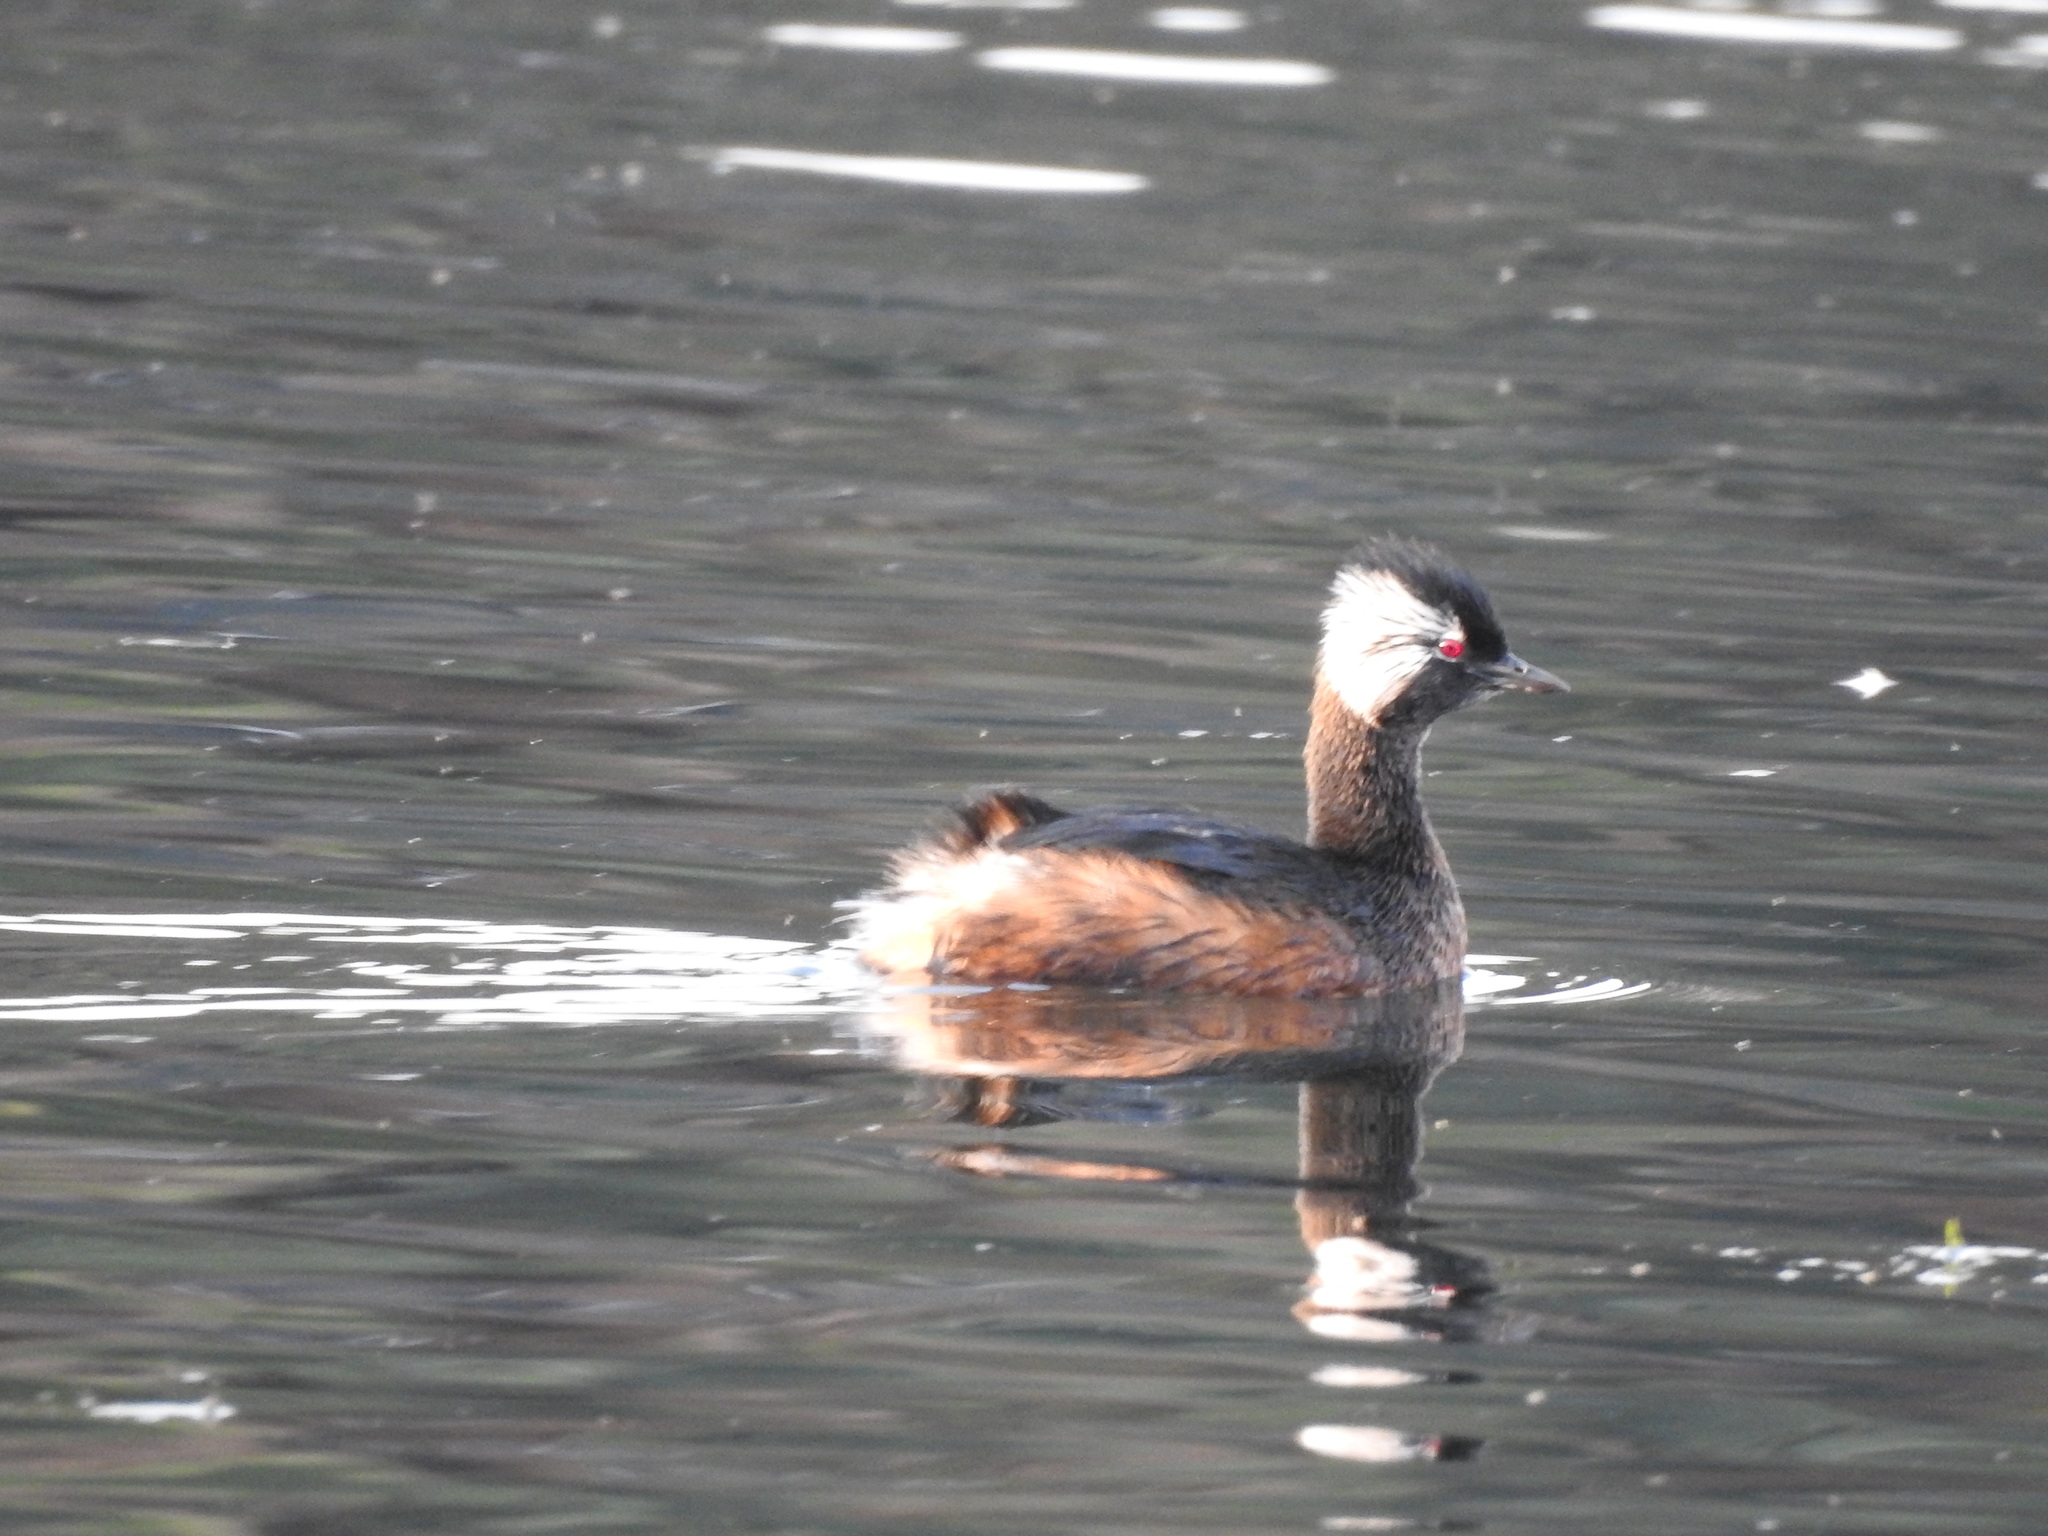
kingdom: Animalia
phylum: Chordata
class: Aves
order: Podicipediformes
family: Podicipedidae
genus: Rollandia
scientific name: Rollandia rolland
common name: White-tufted grebe
